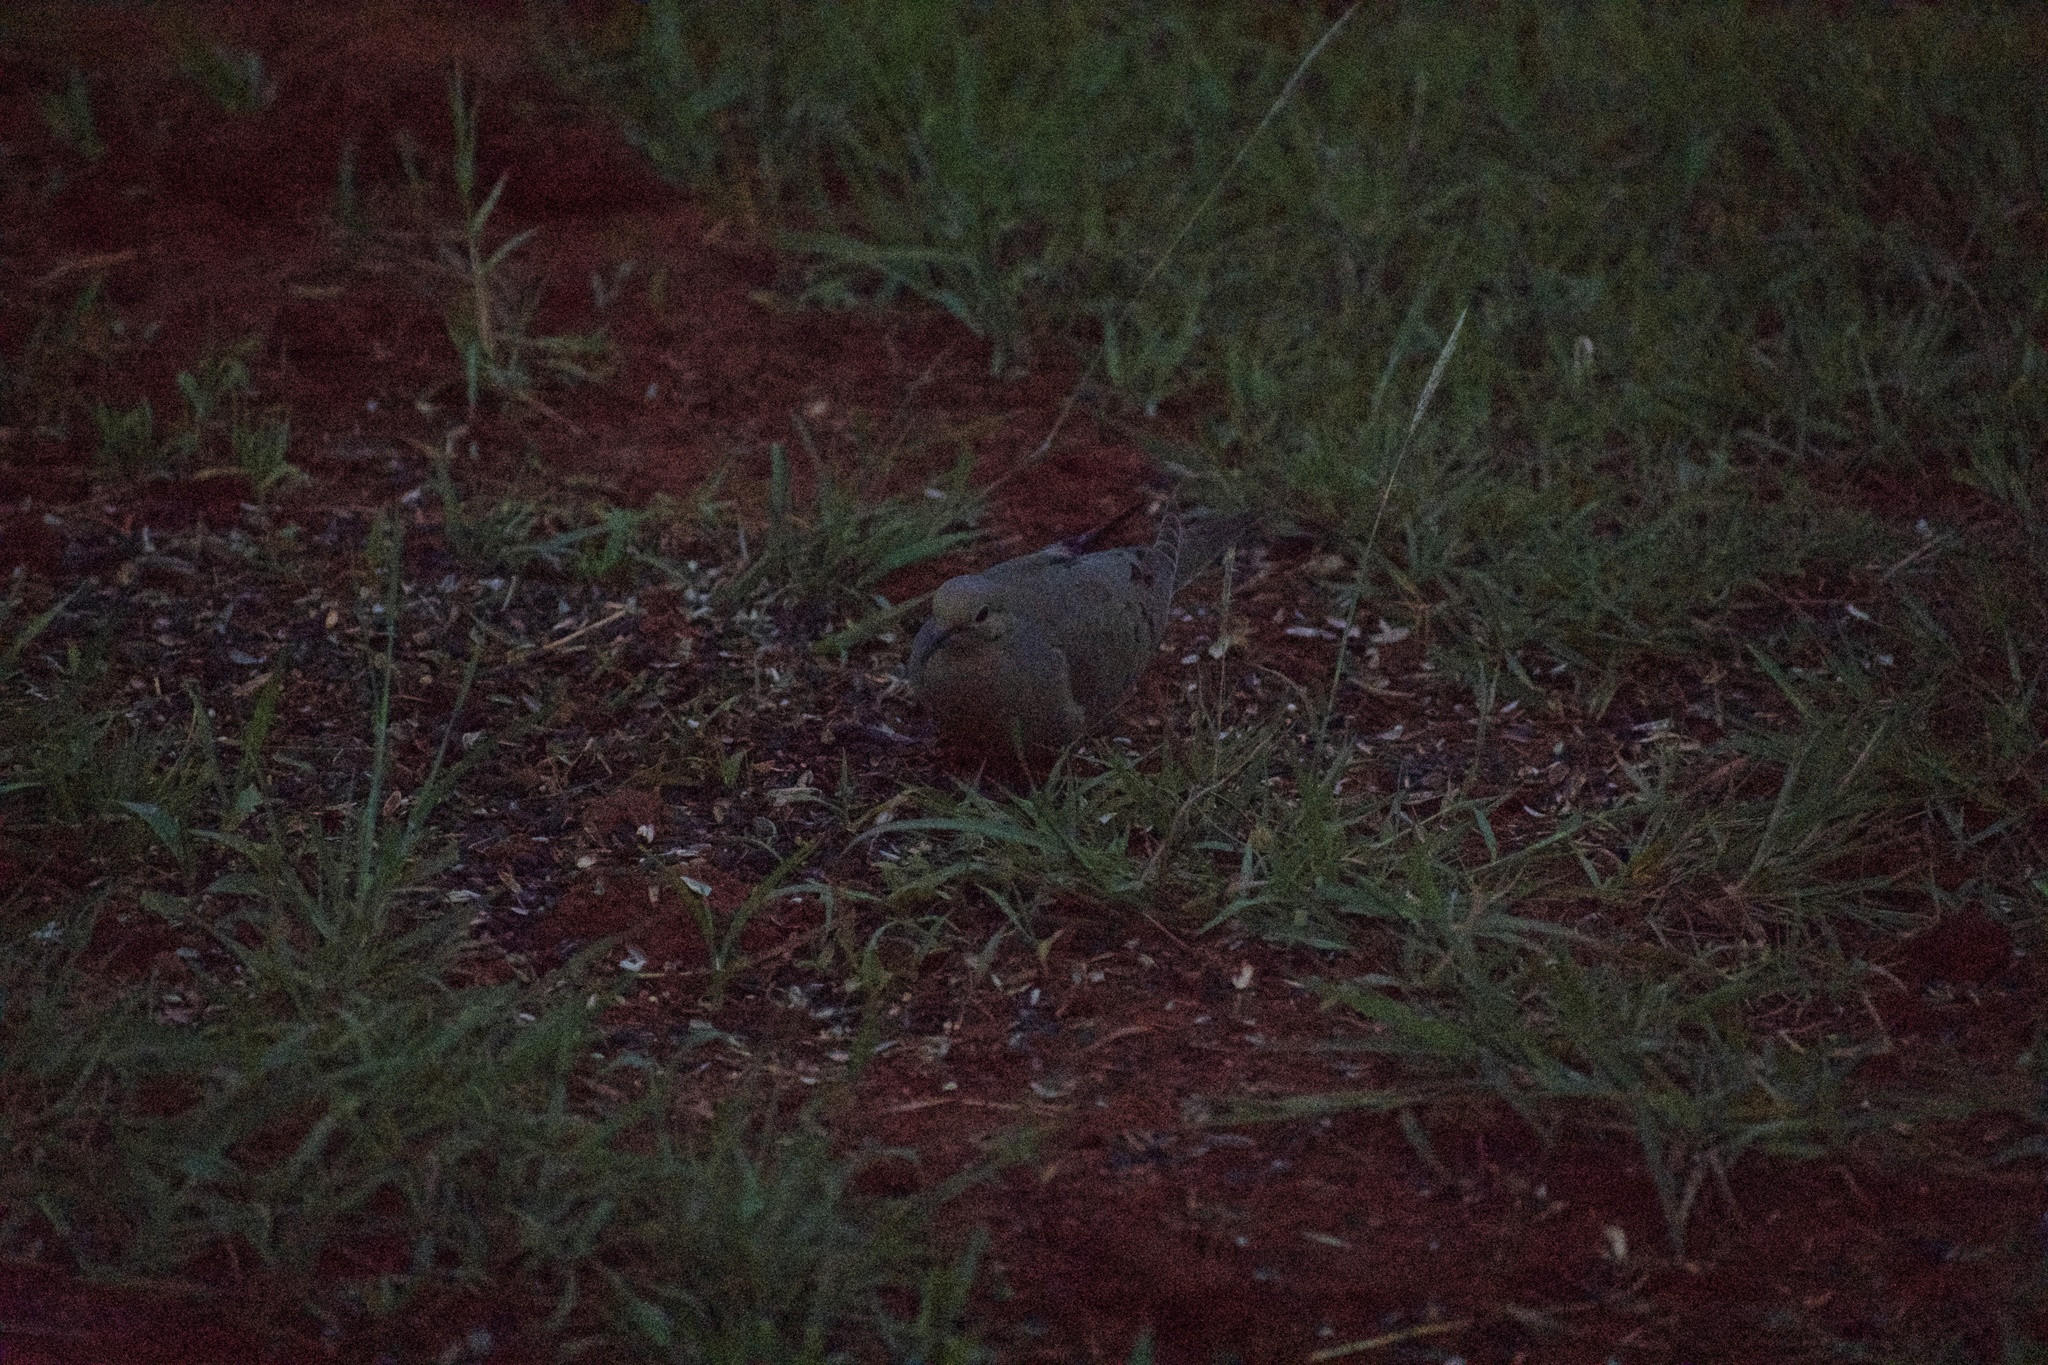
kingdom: Animalia
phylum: Chordata
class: Aves
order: Columbiformes
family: Columbidae
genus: Zenaida
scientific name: Zenaida macroura
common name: Mourning dove
